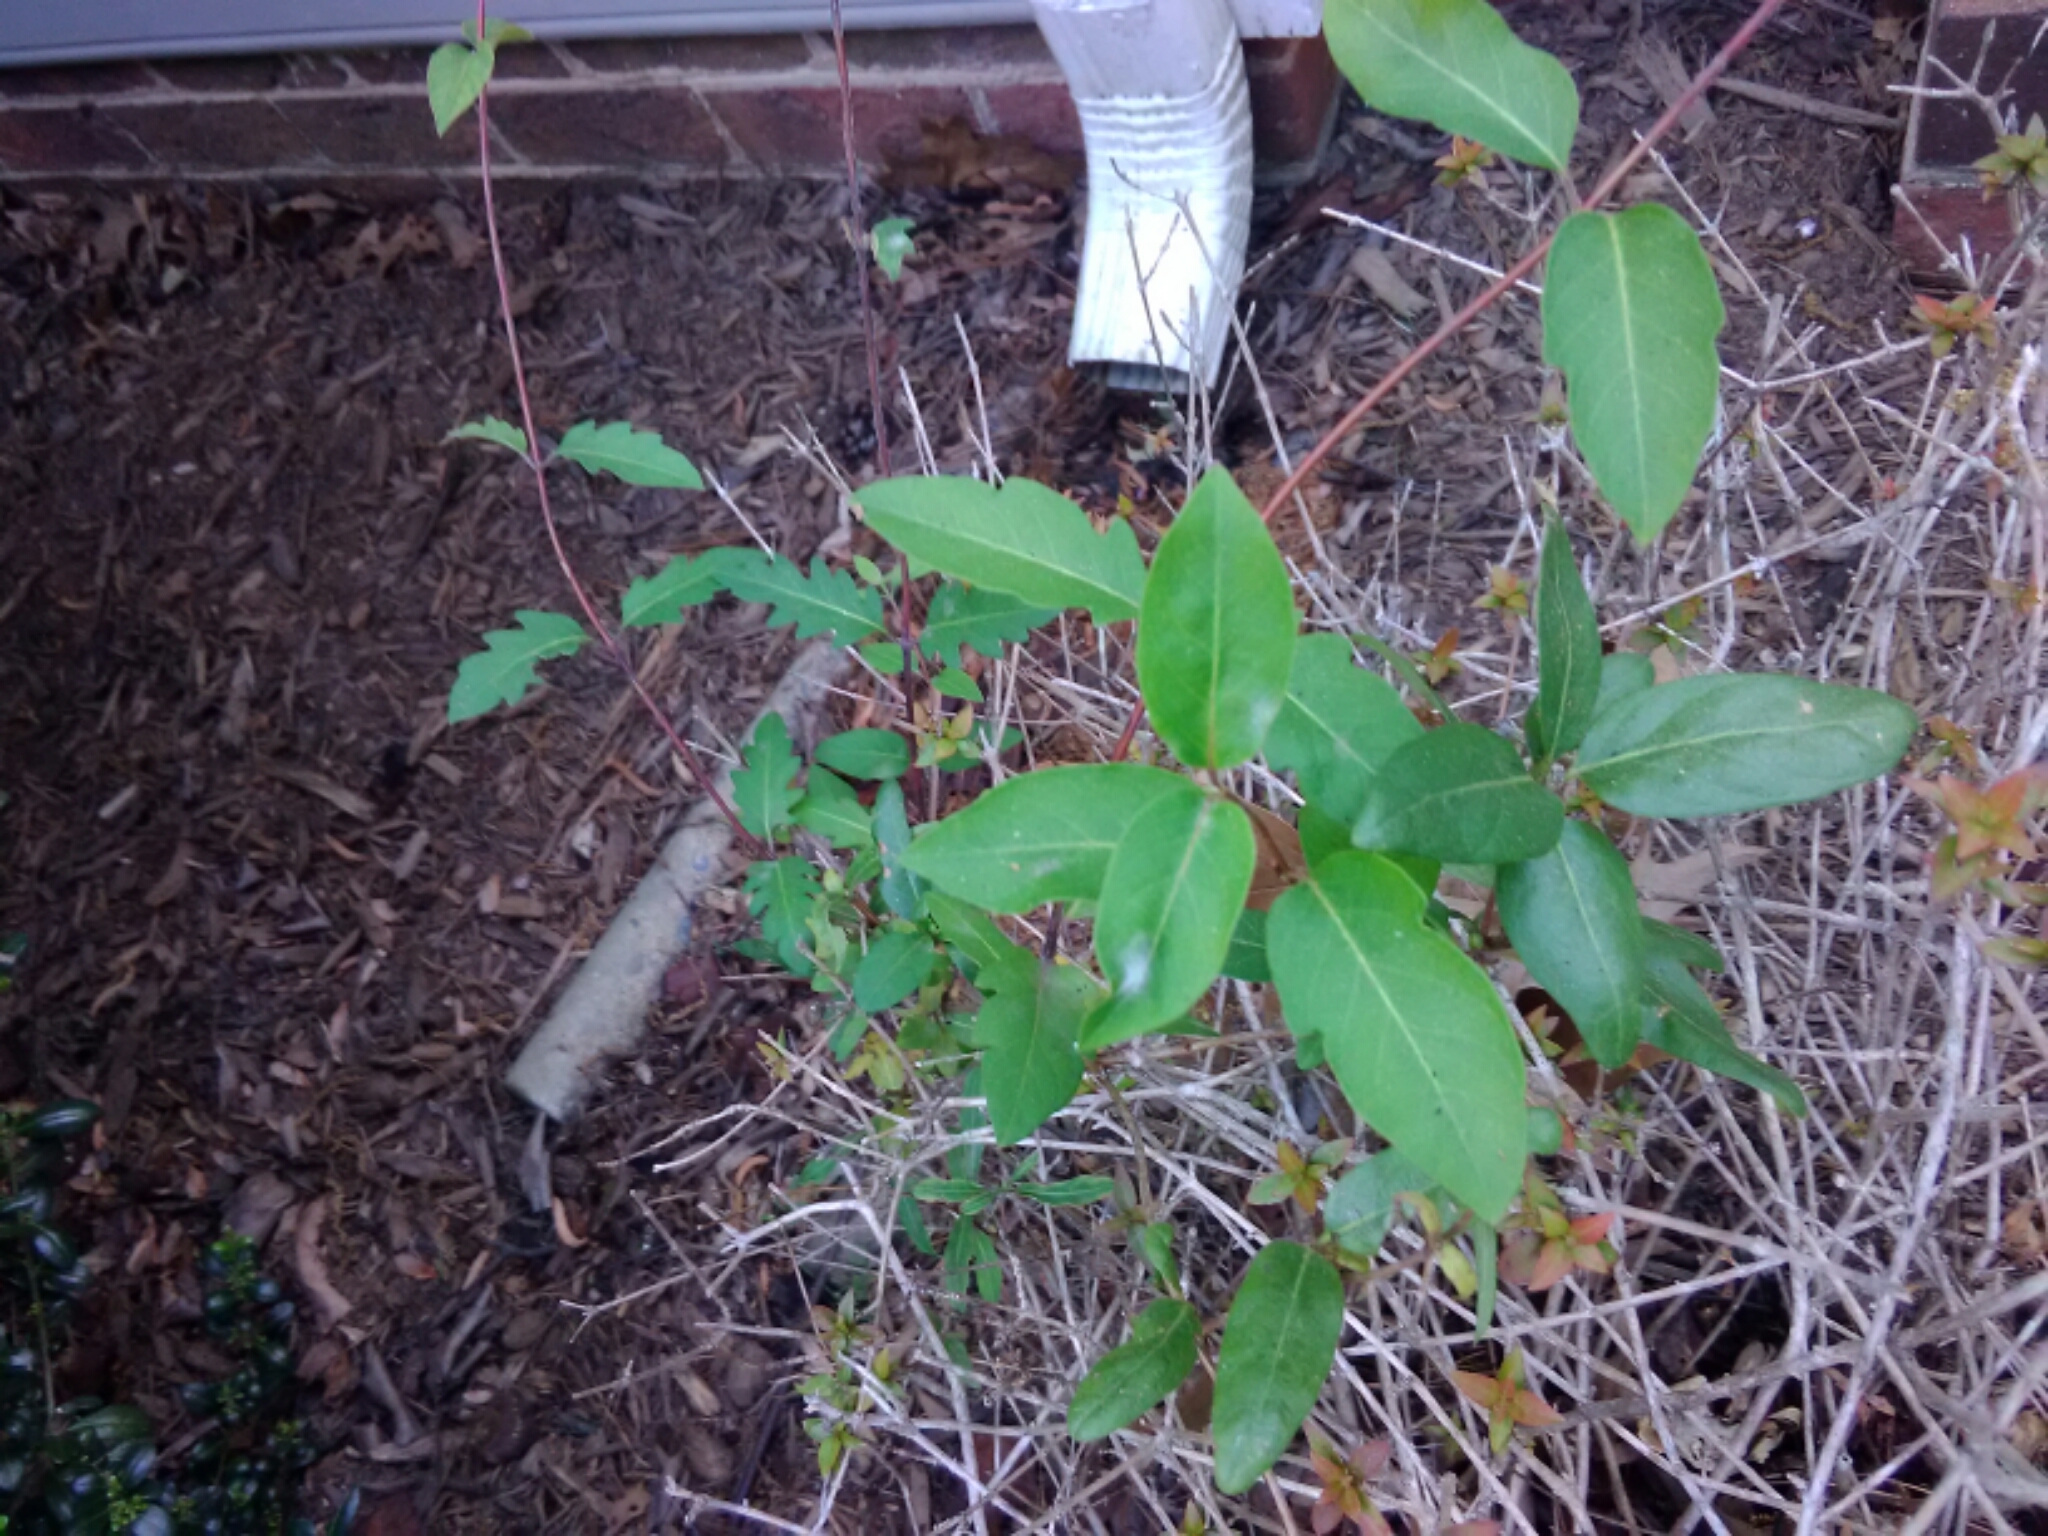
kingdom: Plantae
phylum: Tracheophyta
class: Magnoliopsida
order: Dipsacales
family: Caprifoliaceae
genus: Lonicera
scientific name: Lonicera japonica
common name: Japanese honeysuckle
